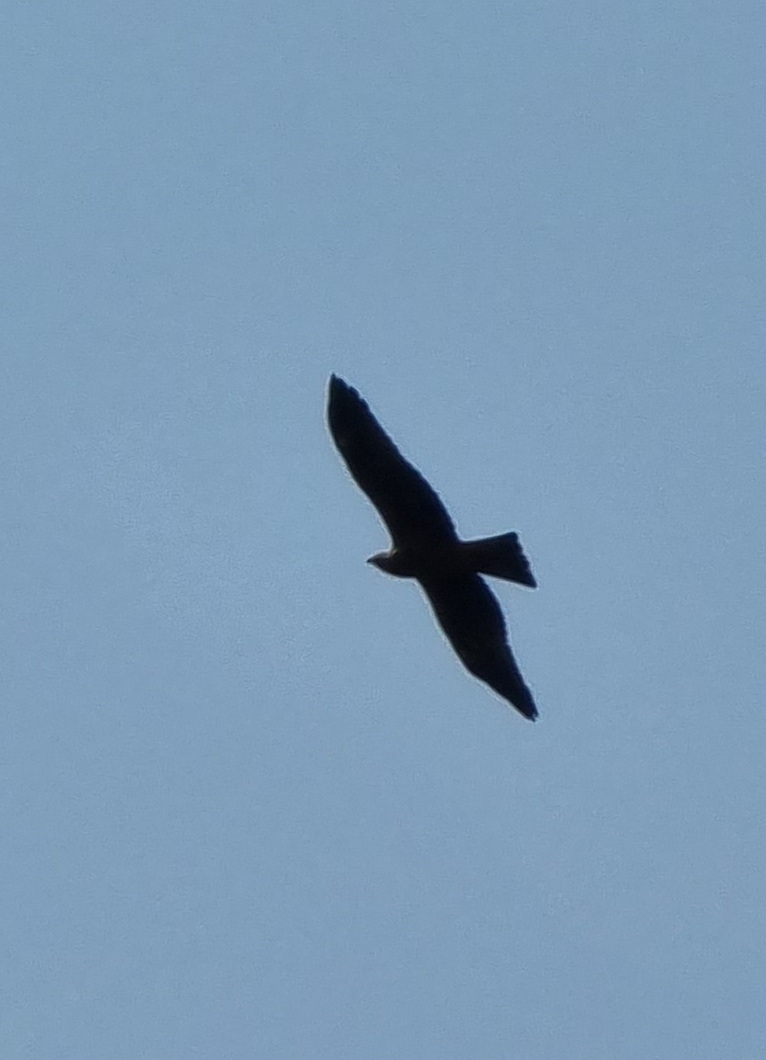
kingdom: Animalia
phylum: Chordata
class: Aves
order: Accipitriformes
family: Accipitridae
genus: Milvus
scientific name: Milvus migrans
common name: Black kite
